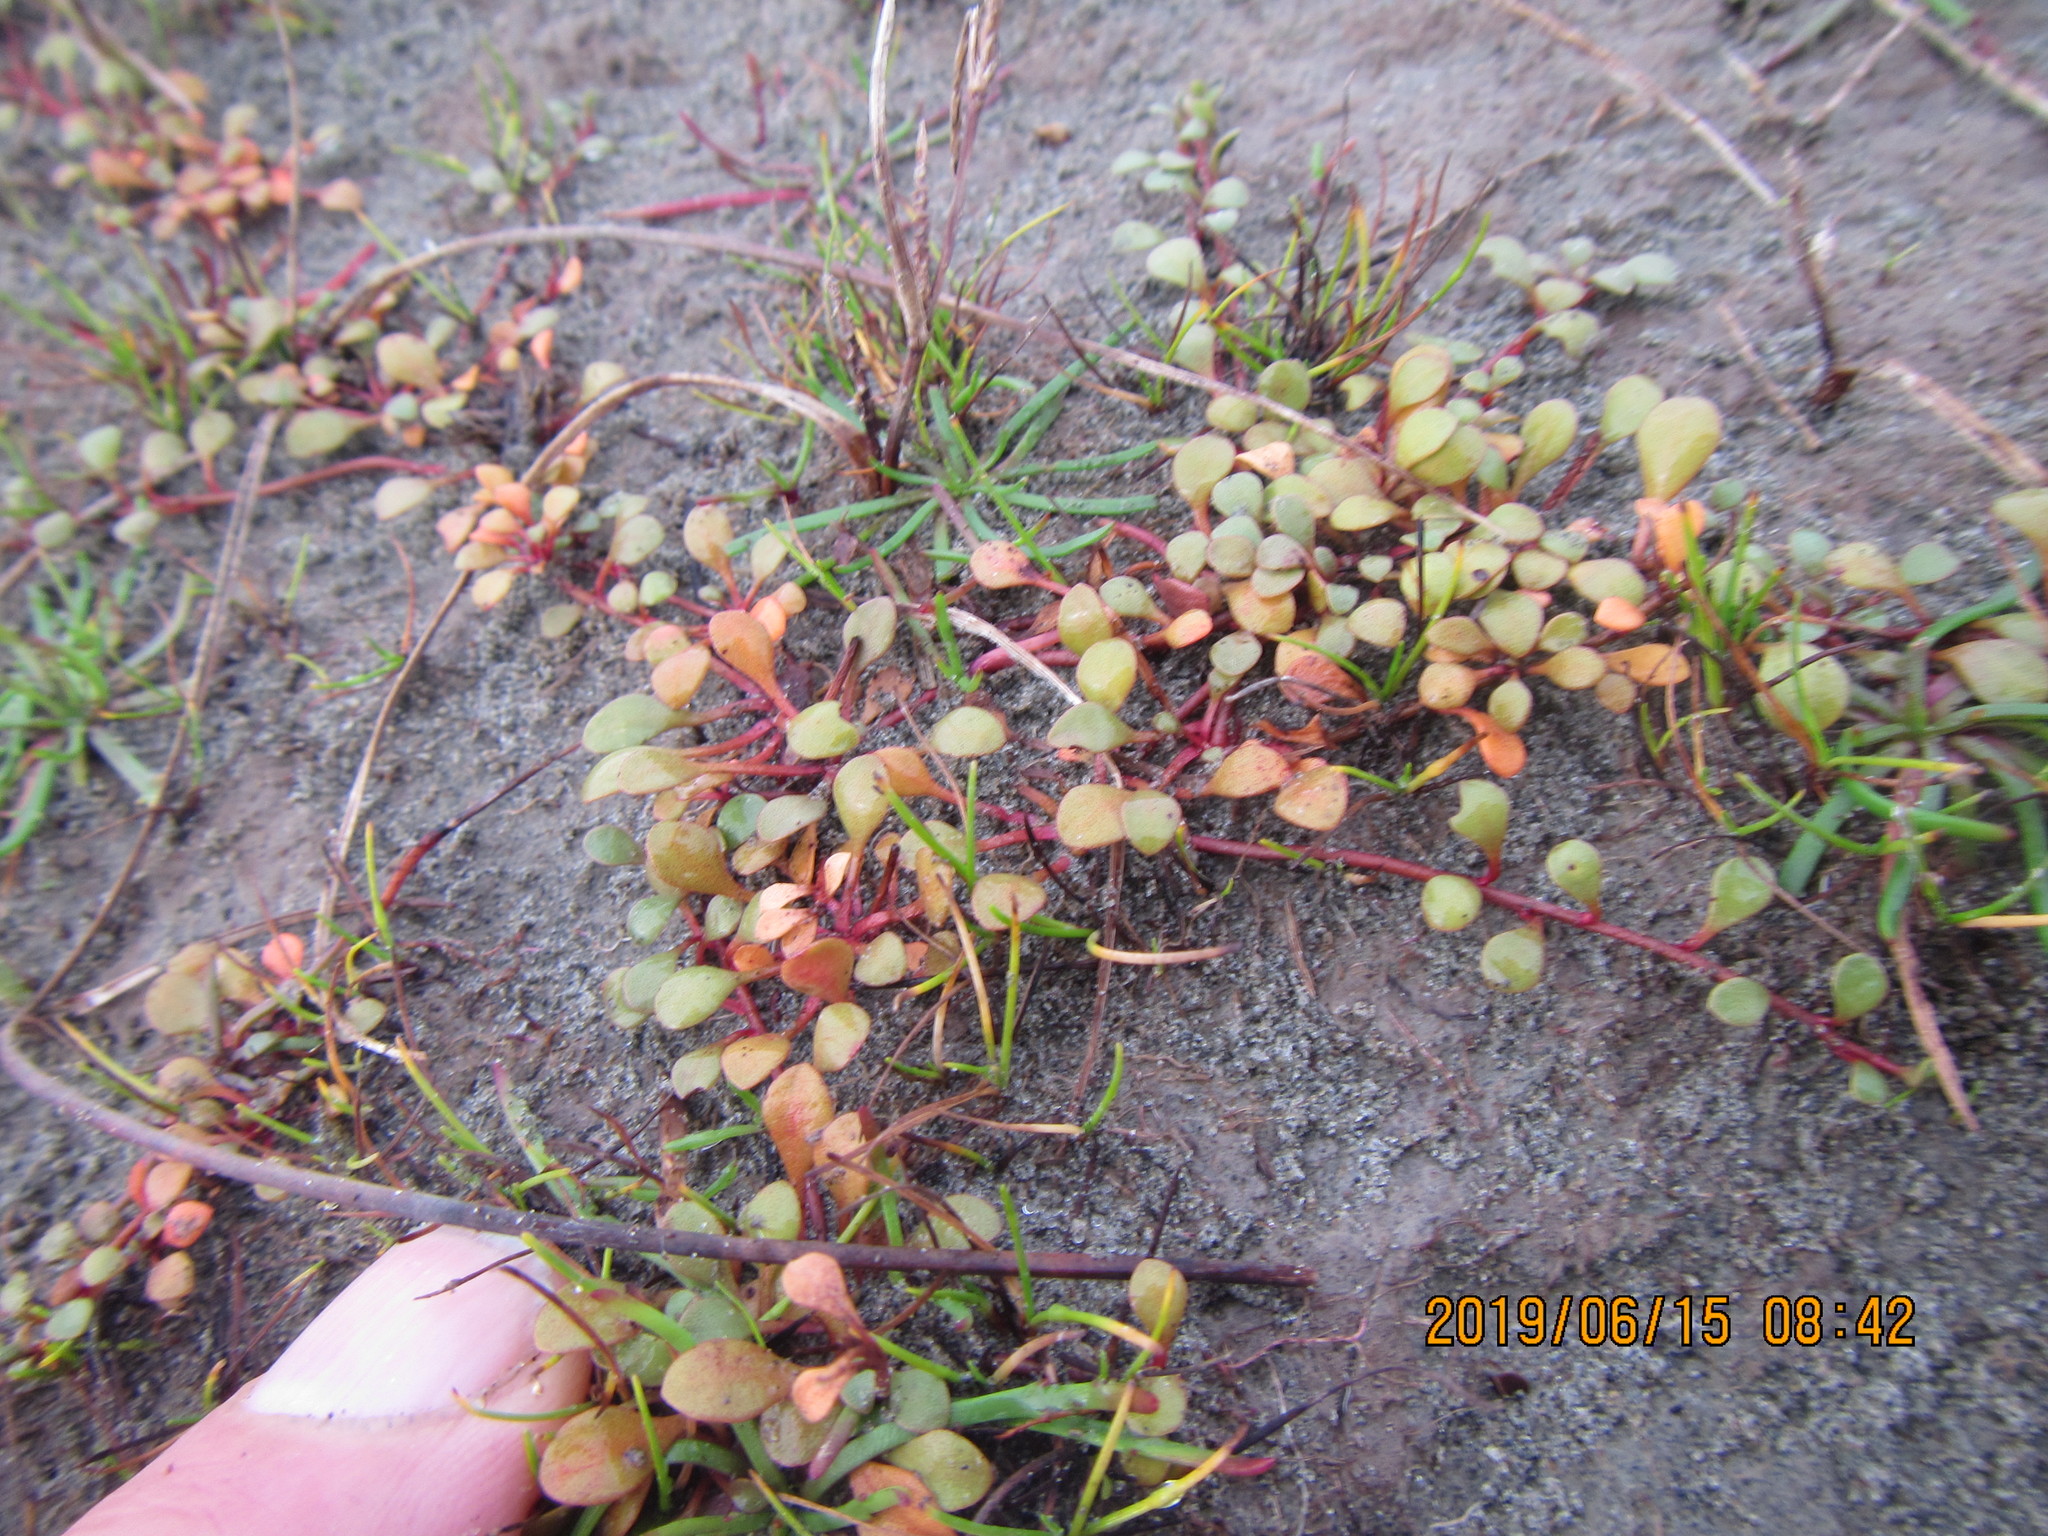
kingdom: Plantae
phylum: Tracheophyta
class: Magnoliopsida
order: Ericales
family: Primulaceae
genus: Samolus
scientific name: Samolus repens
